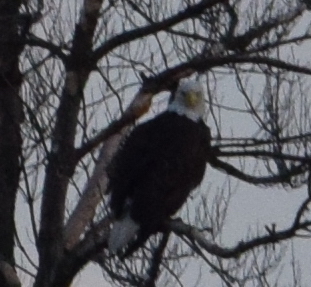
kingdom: Animalia
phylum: Chordata
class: Aves
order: Accipitriformes
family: Accipitridae
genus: Haliaeetus
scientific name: Haliaeetus leucocephalus
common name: Bald eagle
